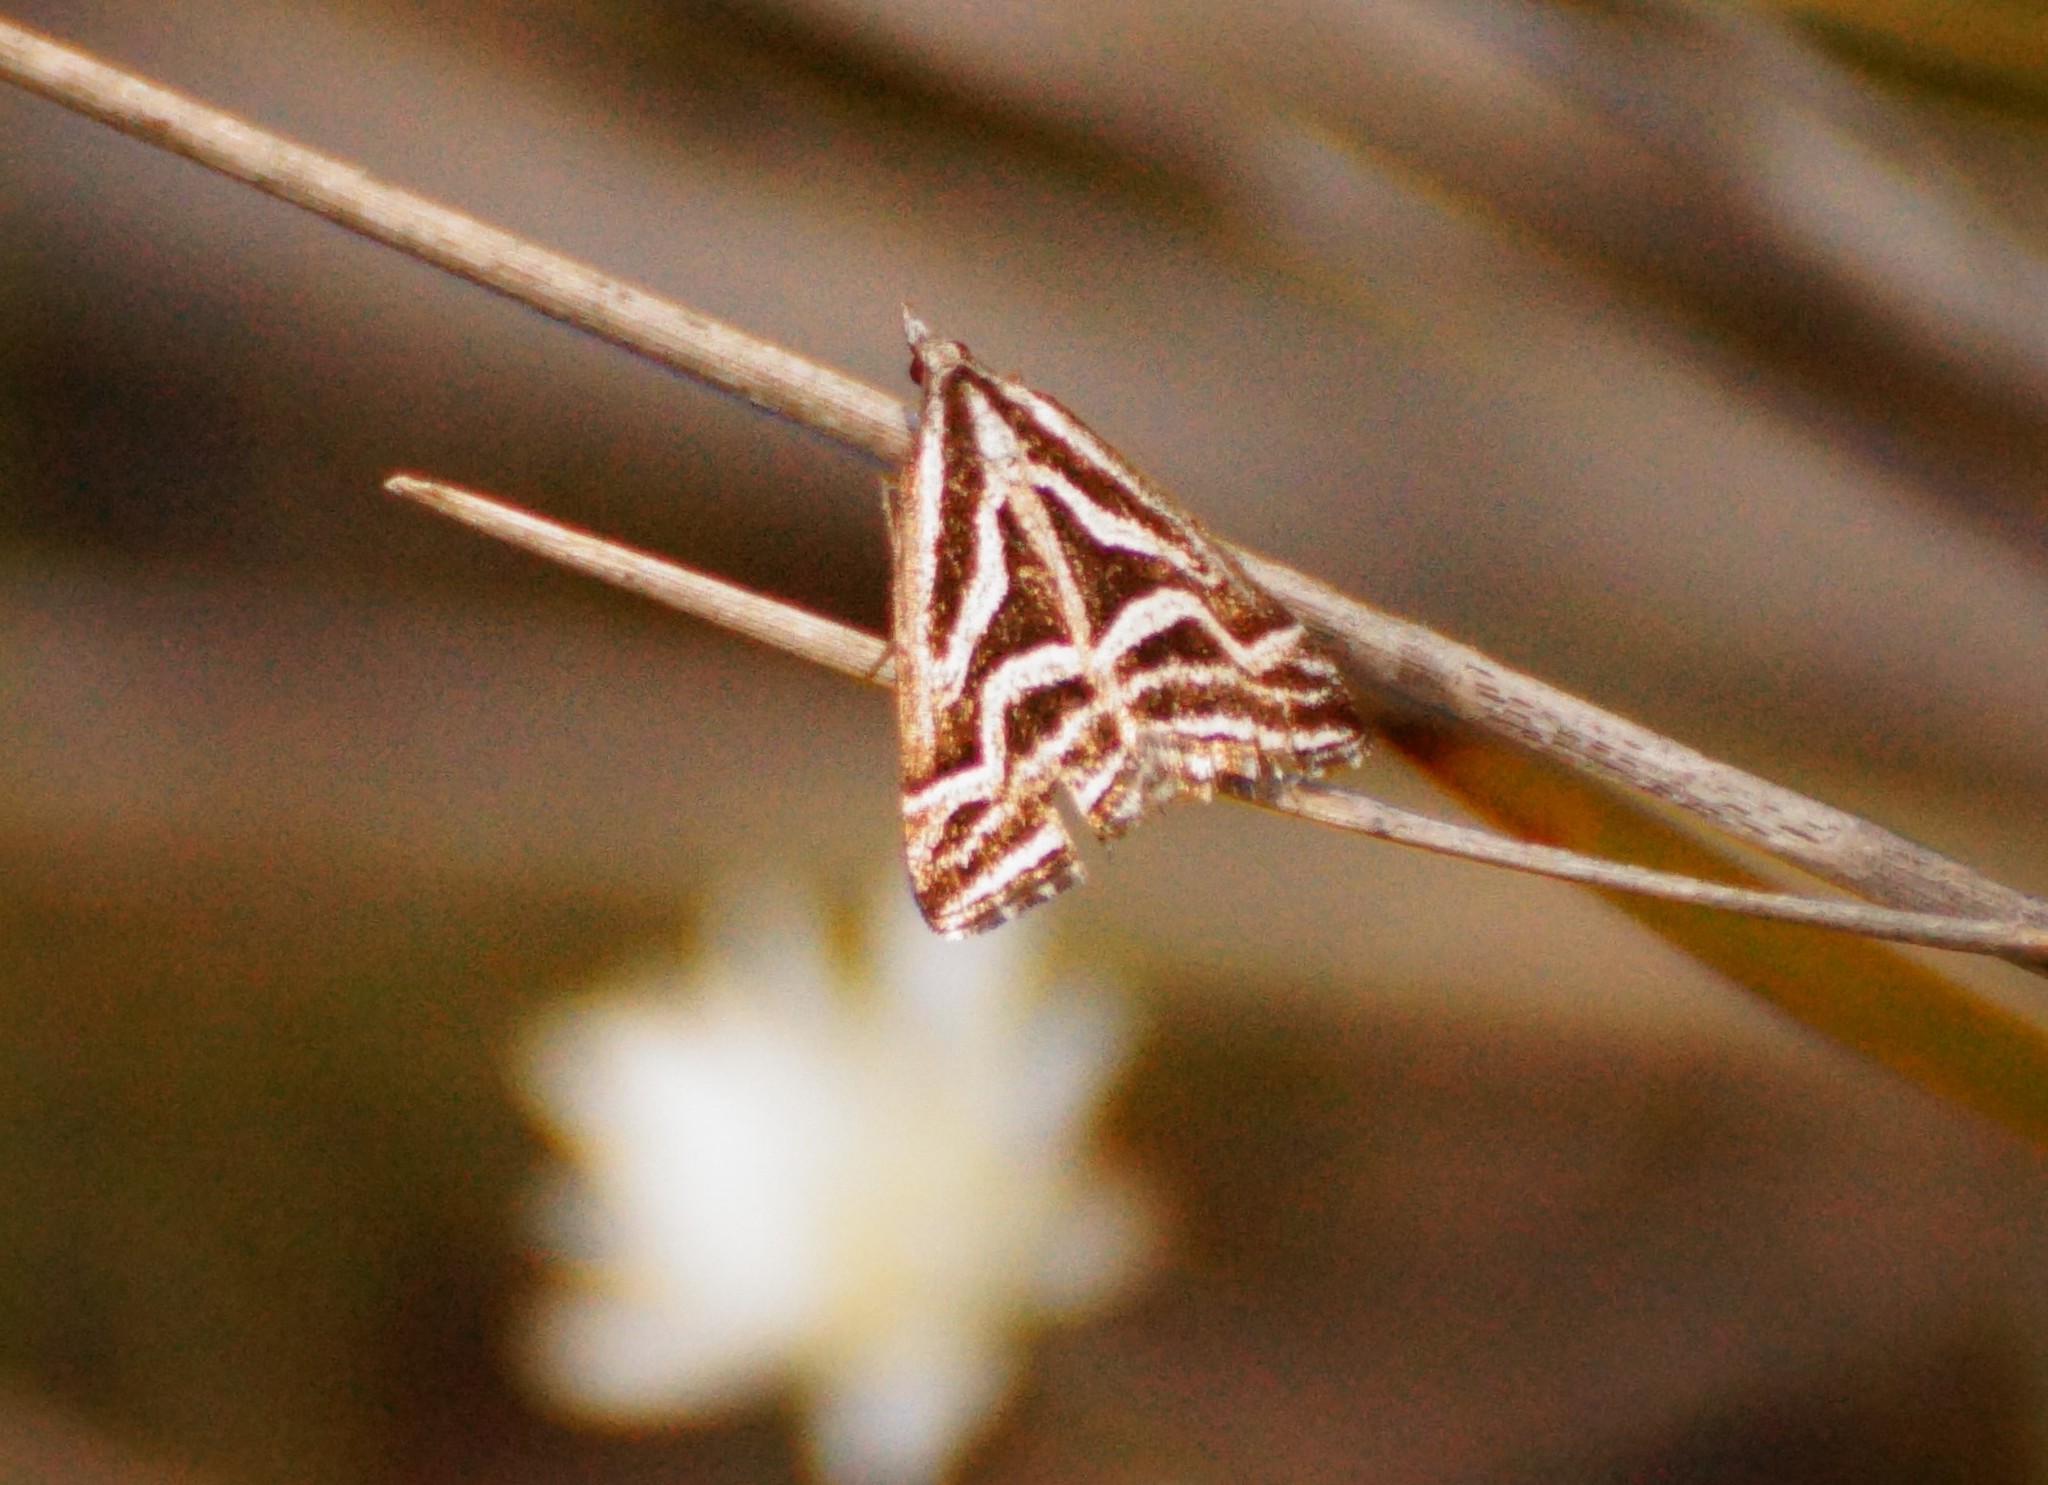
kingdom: Animalia
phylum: Arthropoda
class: Insecta
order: Lepidoptera
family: Geometridae
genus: Dichromodes
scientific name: Dichromodes confluaria
